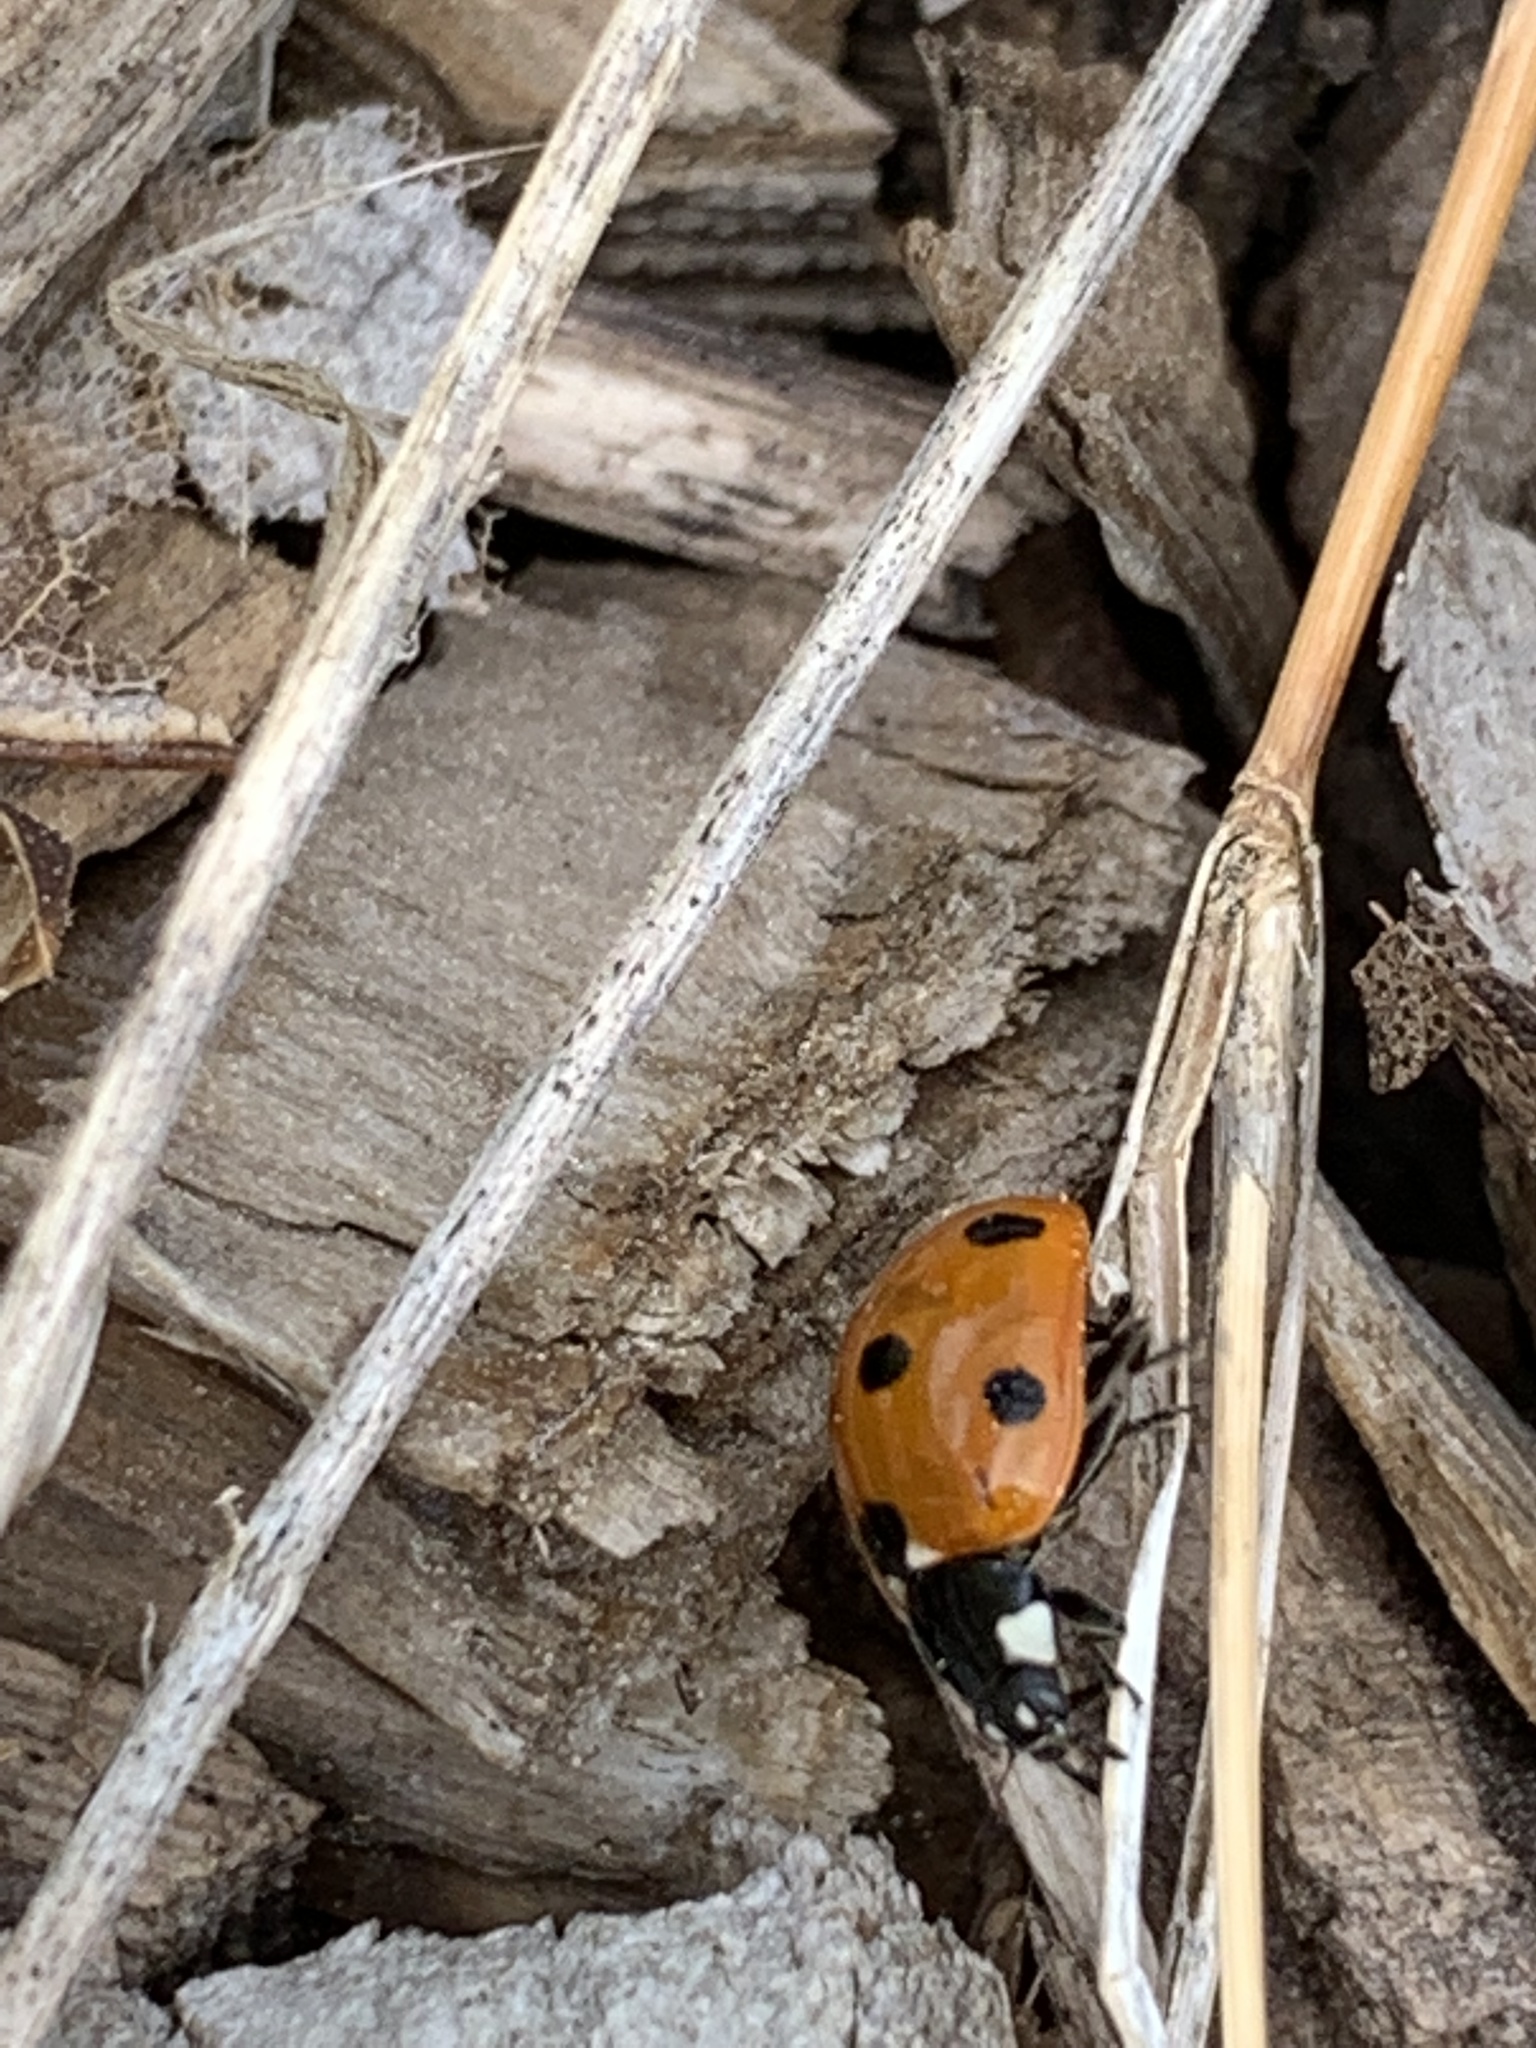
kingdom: Animalia
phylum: Arthropoda
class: Insecta
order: Coleoptera
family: Coccinellidae
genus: Coccinella
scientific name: Coccinella septempunctata
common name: Sevenspotted lady beetle
